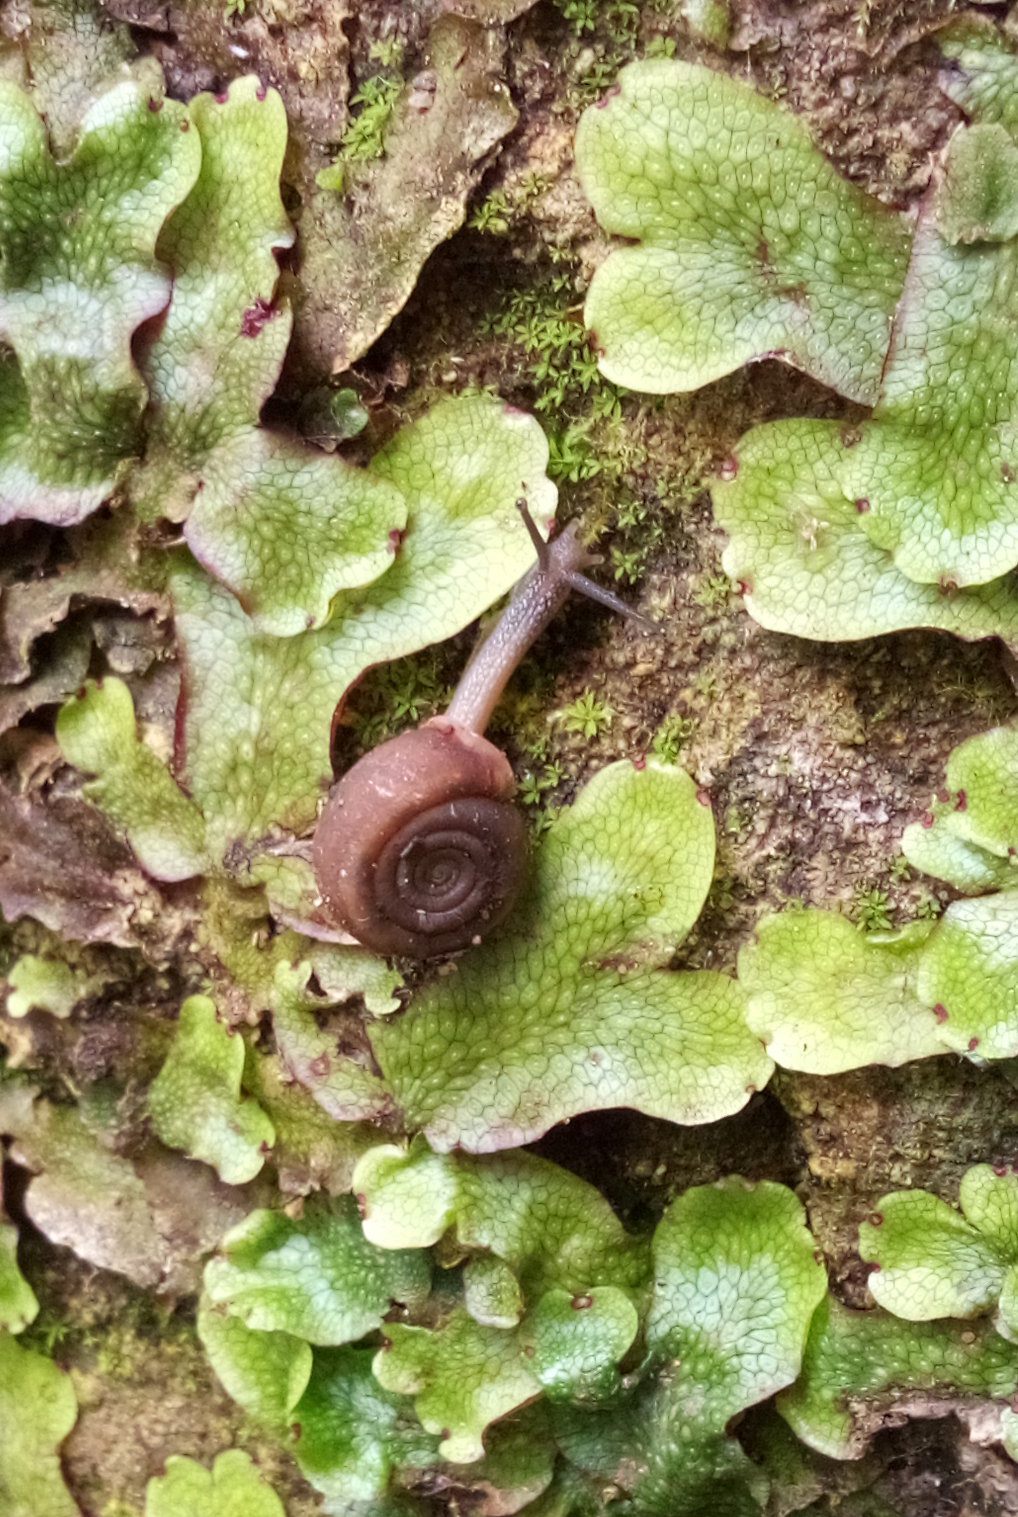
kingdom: Animalia
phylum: Mollusca
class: Gastropoda
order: Stylommatophora
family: Helicodontidae
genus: Helicodonta
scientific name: Helicodonta obvoluta
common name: Cheese snail
